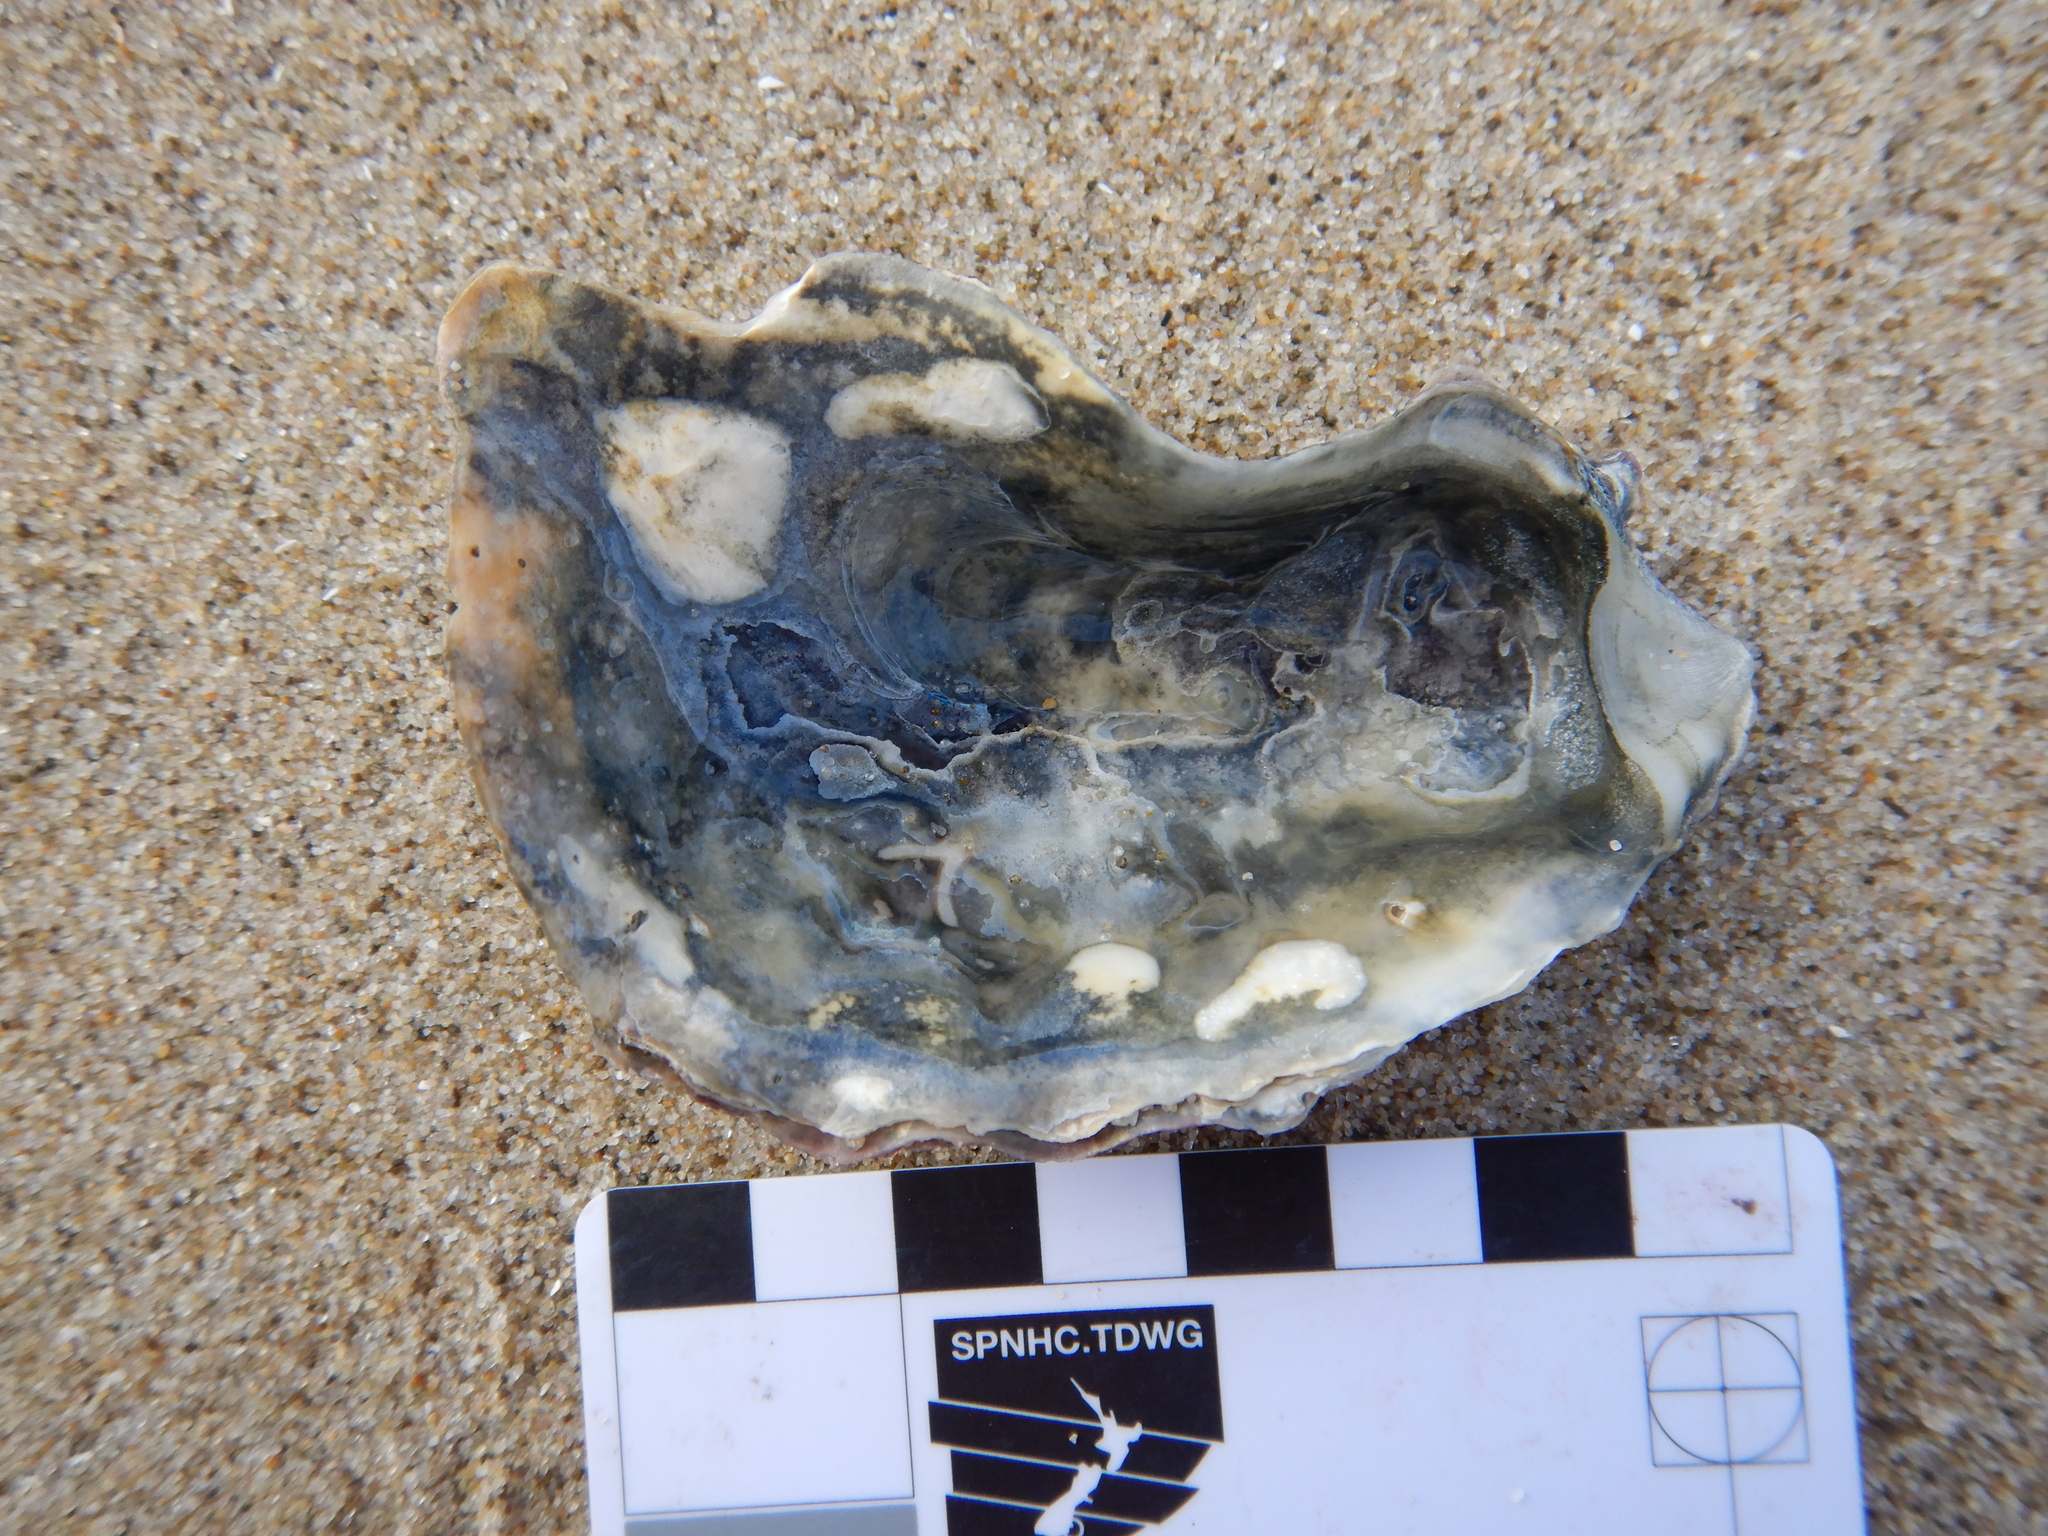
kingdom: Animalia
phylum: Mollusca
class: Bivalvia
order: Ostreida
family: Ostreidae
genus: Magallana
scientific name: Magallana gigas
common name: Pacific oyster
